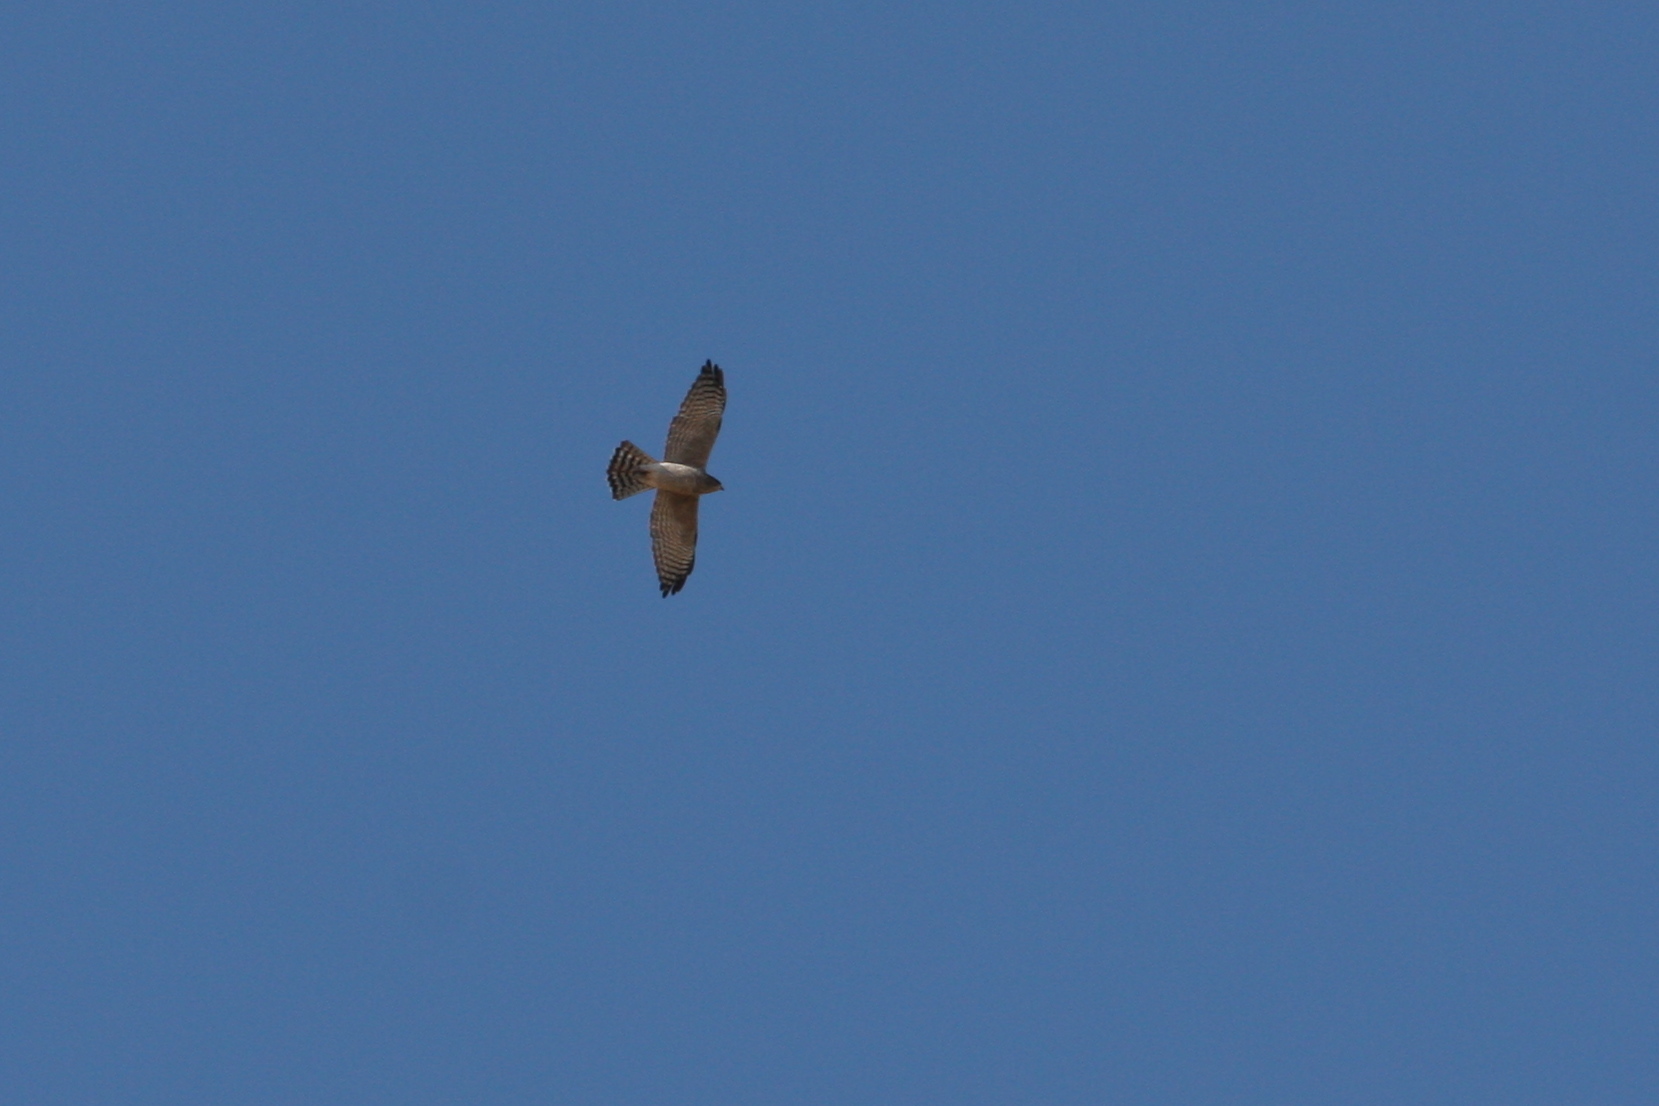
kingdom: Animalia
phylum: Chordata
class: Aves
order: Accipitriformes
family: Accipitridae
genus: Accipiter
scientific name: Accipiter brevipes
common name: Levant sparrowhawk
